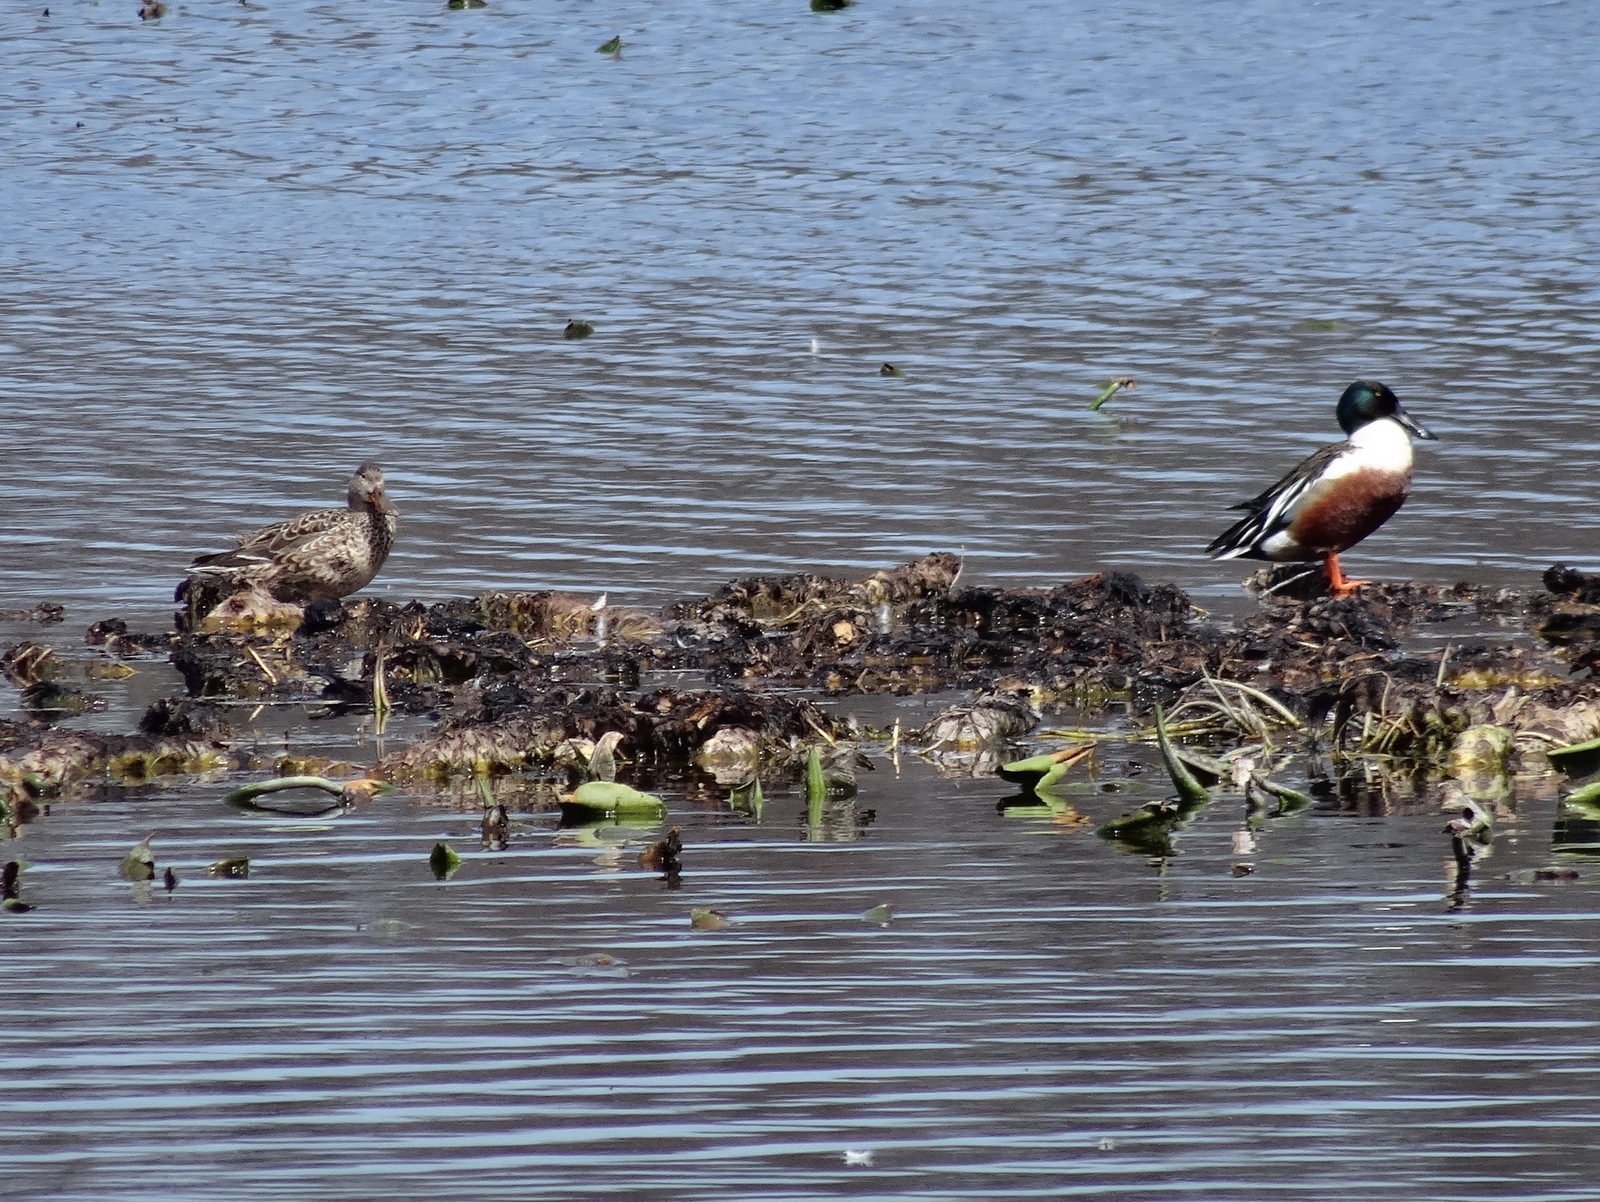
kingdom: Animalia
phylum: Chordata
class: Aves
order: Anseriformes
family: Anatidae
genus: Spatula
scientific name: Spatula clypeata
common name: Northern shoveler
